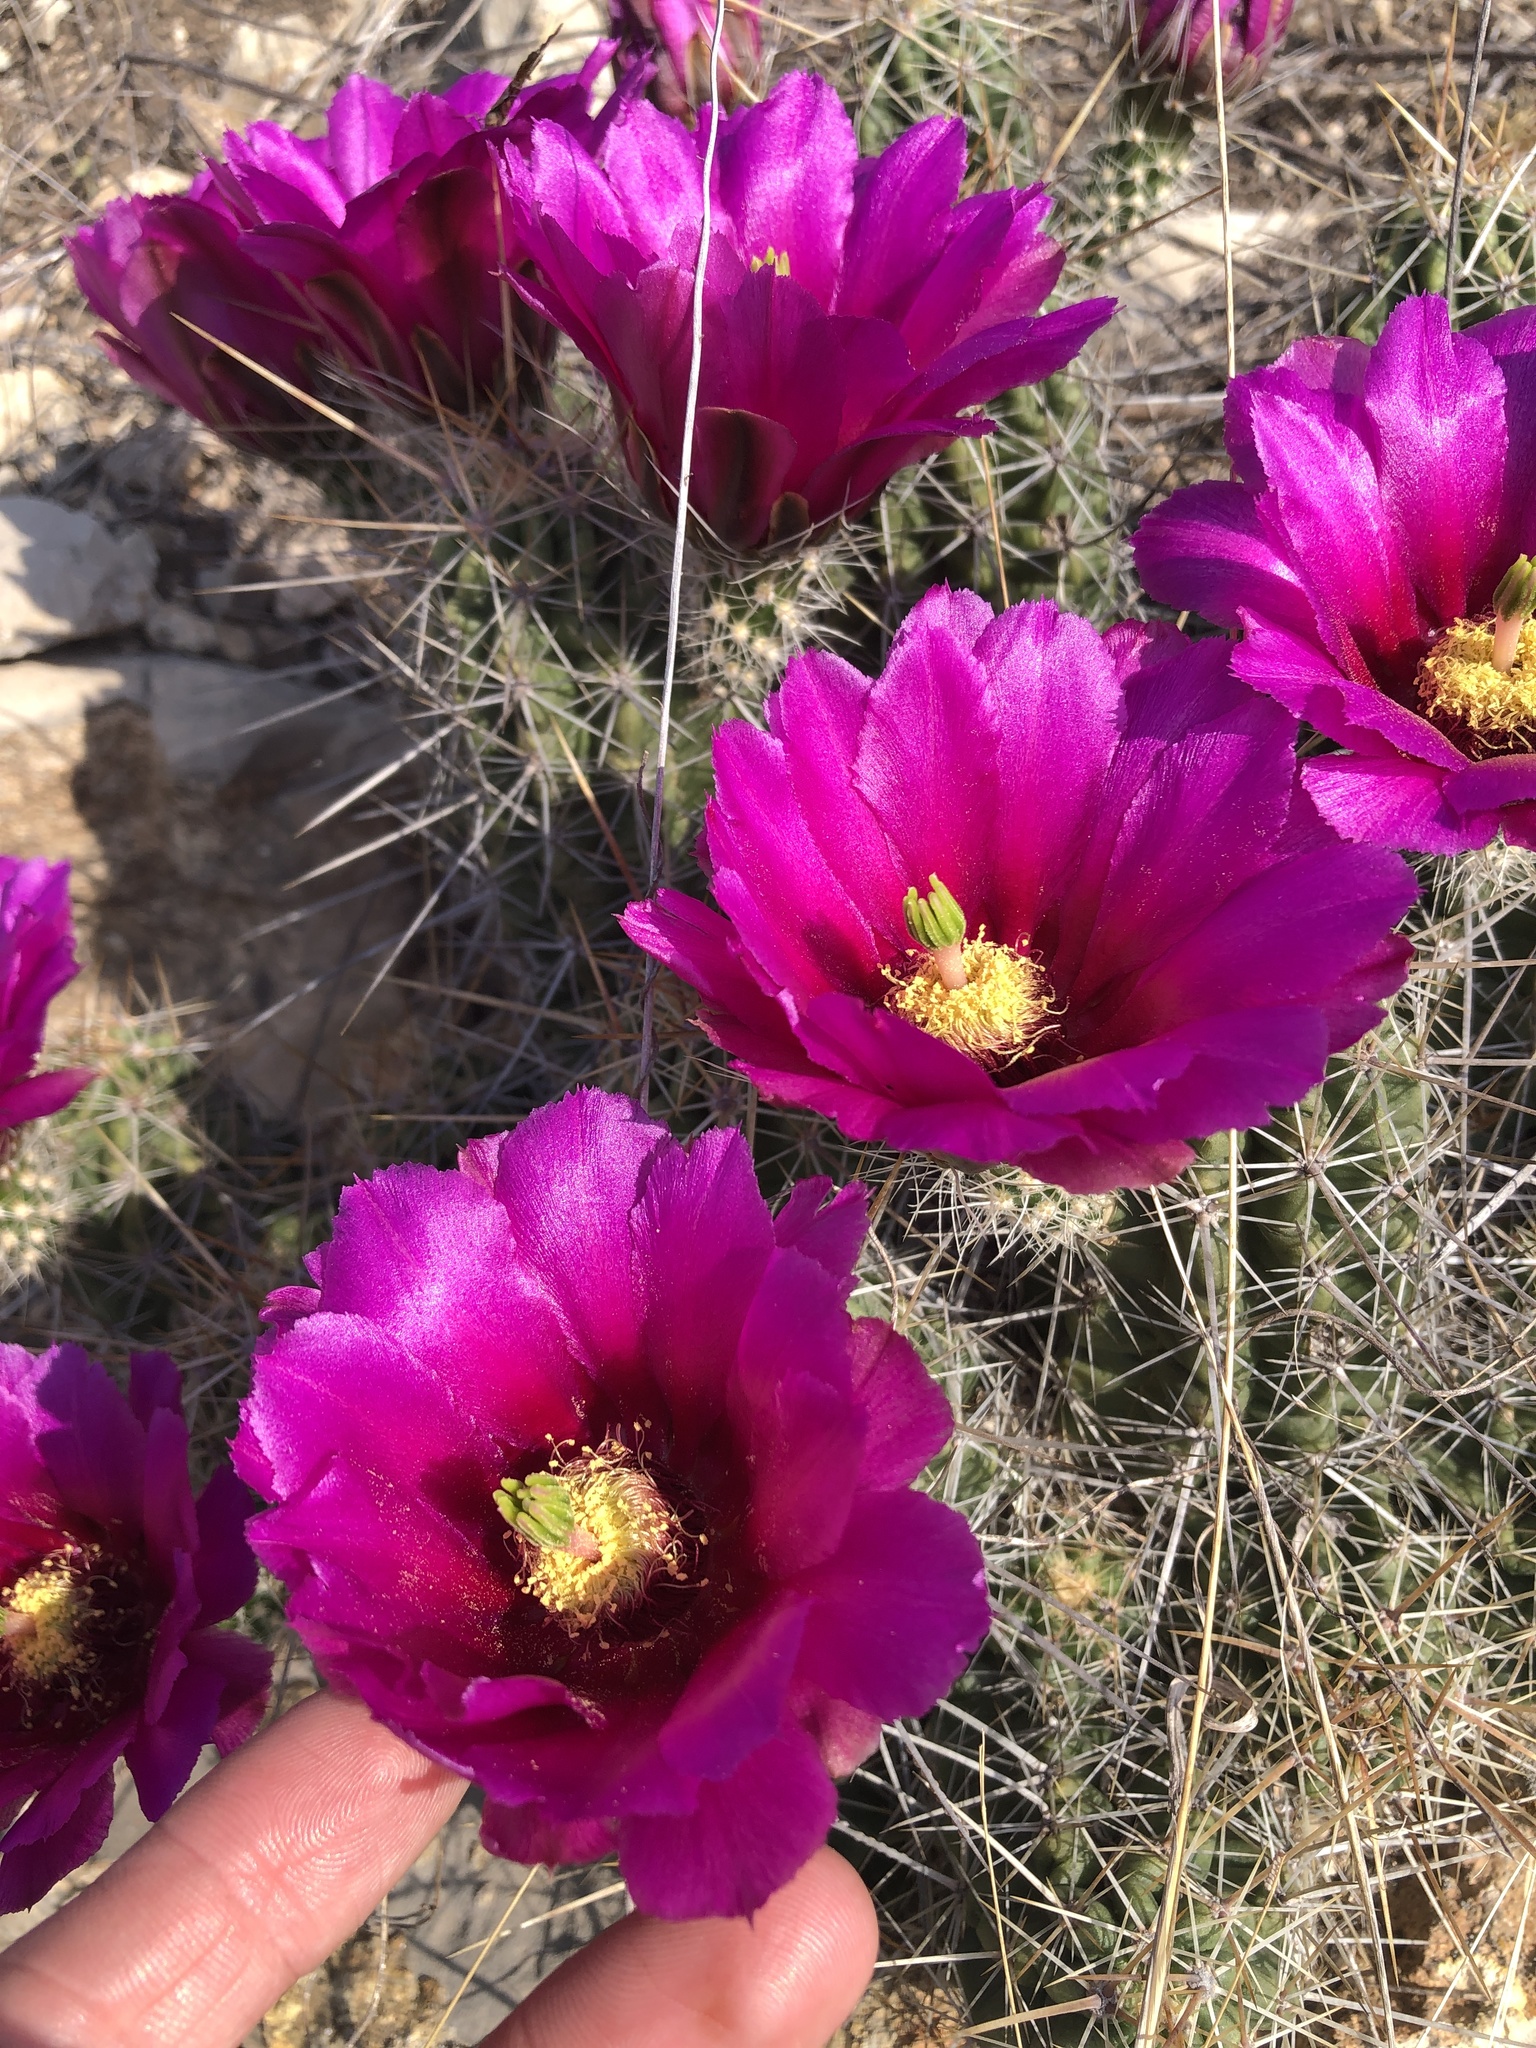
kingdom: Plantae
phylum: Tracheophyta
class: Magnoliopsida
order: Caryophyllales
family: Cactaceae
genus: Echinocereus
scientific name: Echinocereus enneacanthus
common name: Pitaya
